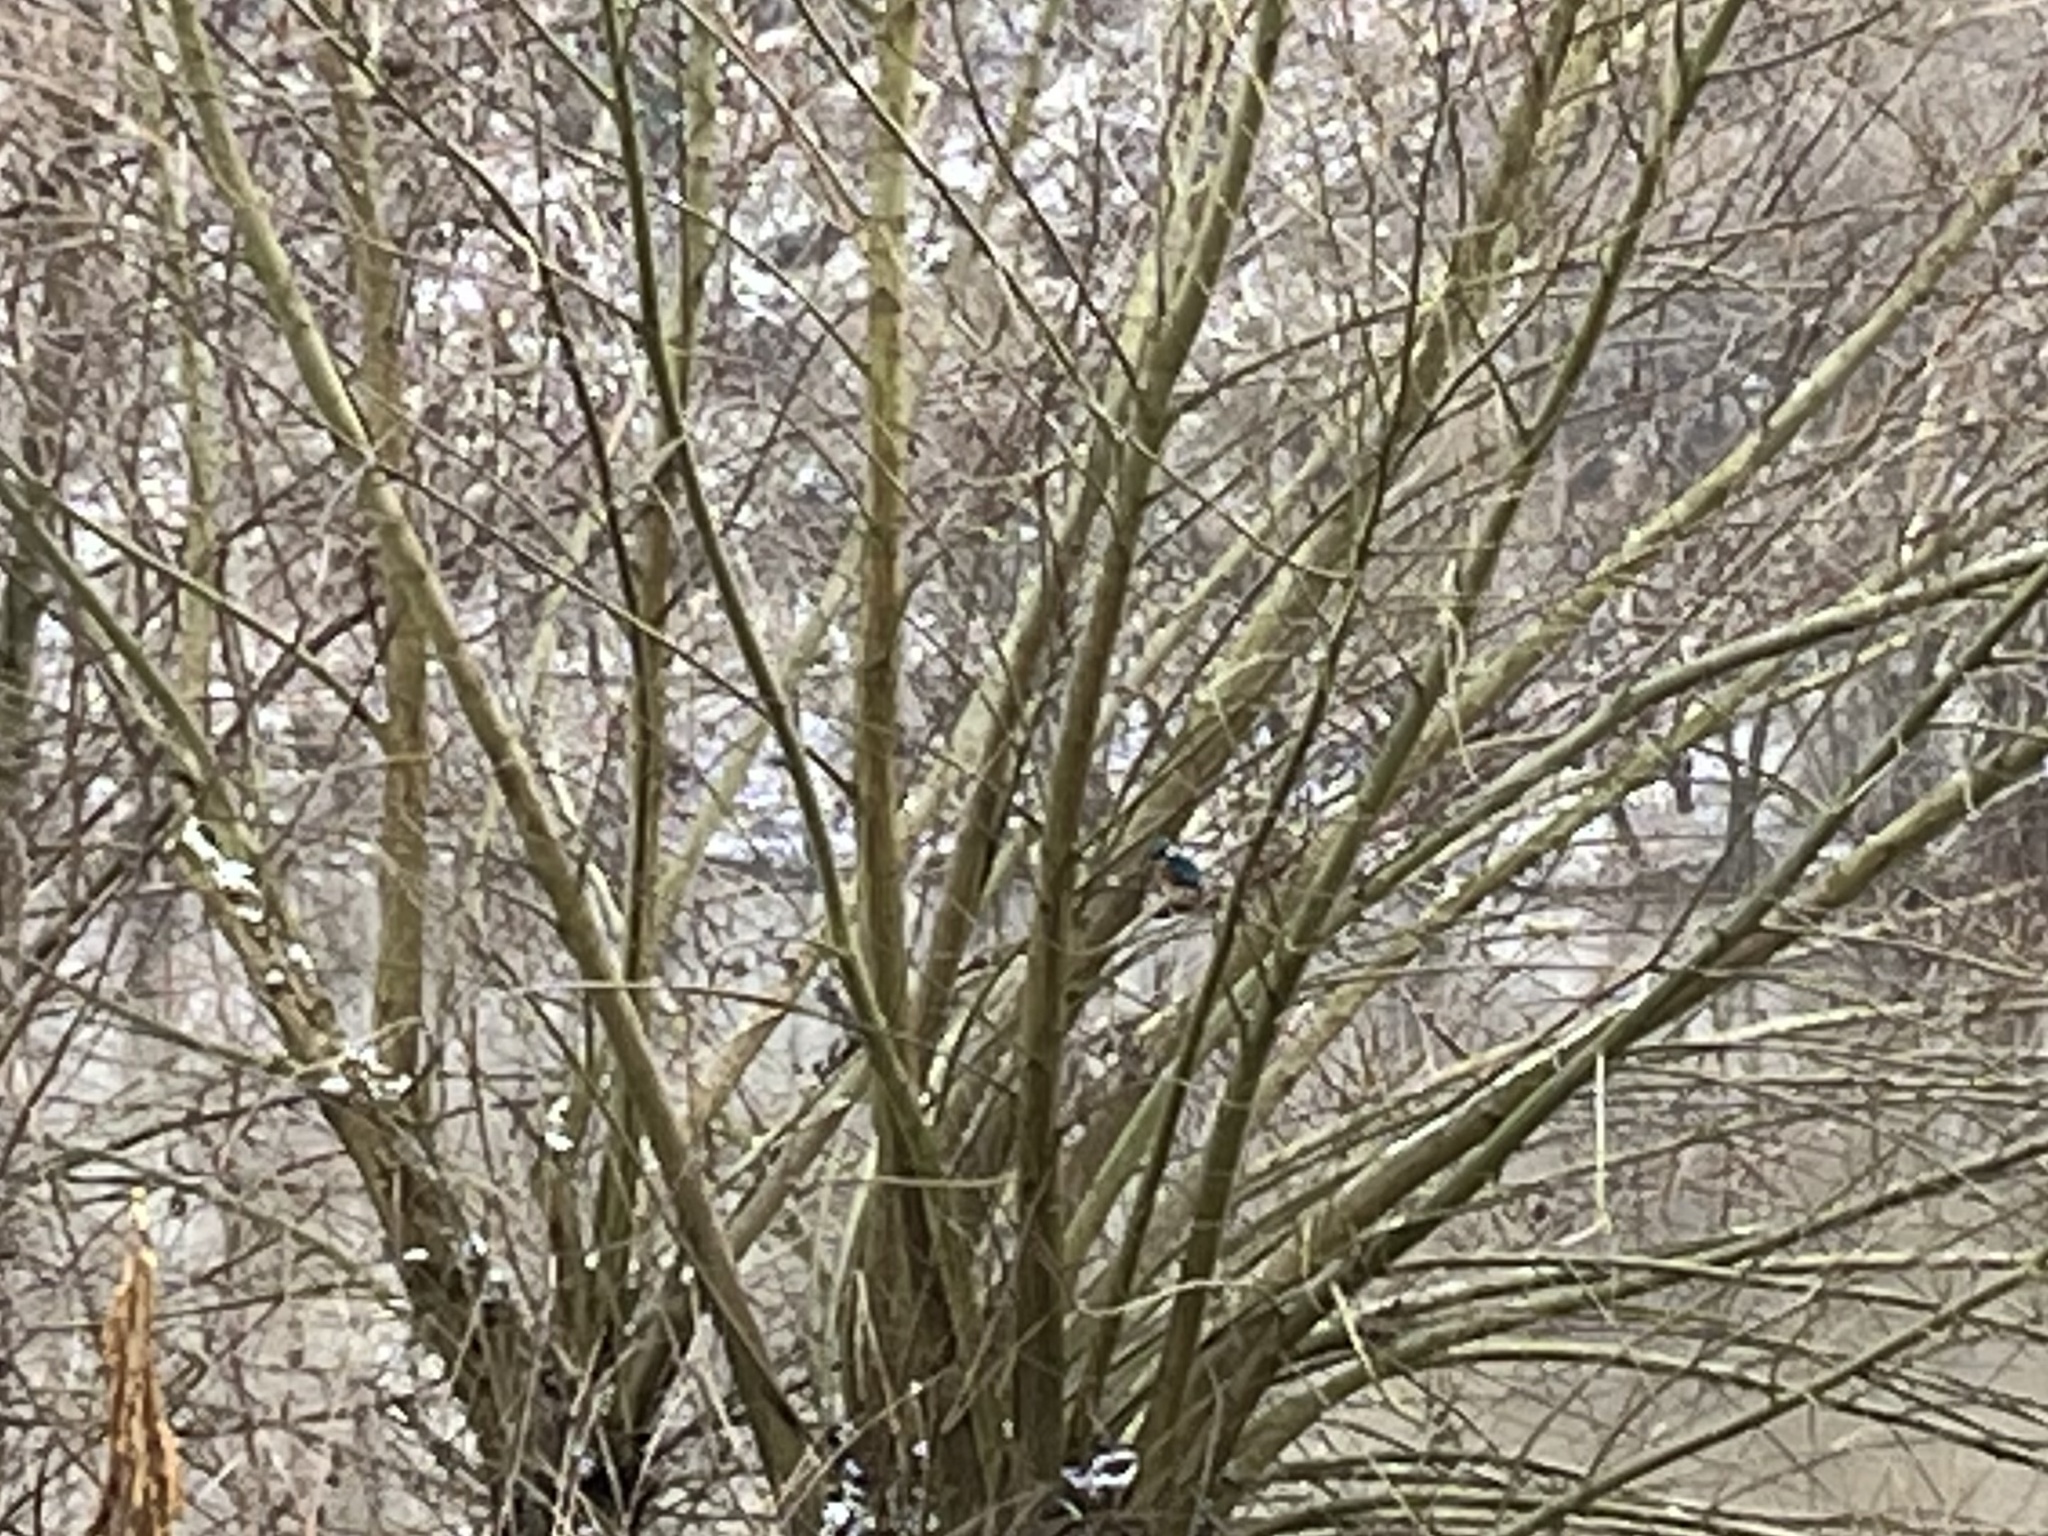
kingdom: Animalia
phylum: Chordata
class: Aves
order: Coraciiformes
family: Alcedinidae
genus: Alcedo
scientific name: Alcedo atthis
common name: Common kingfisher
